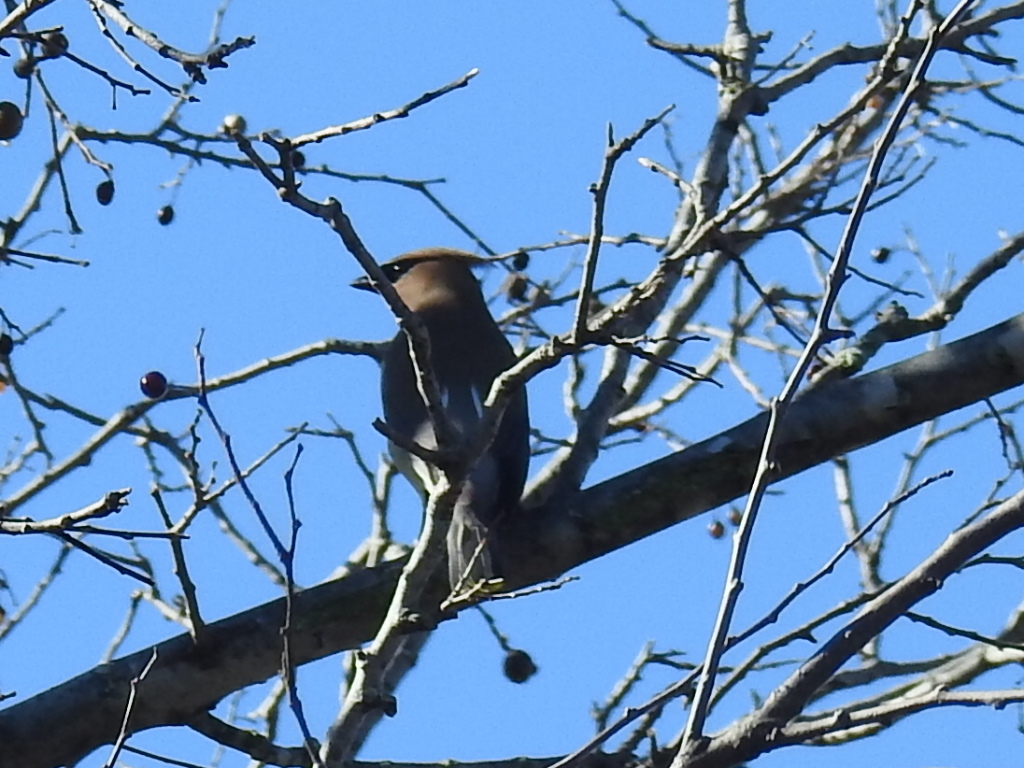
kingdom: Animalia
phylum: Chordata
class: Aves
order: Passeriformes
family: Bombycillidae
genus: Bombycilla
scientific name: Bombycilla cedrorum
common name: Cedar waxwing
